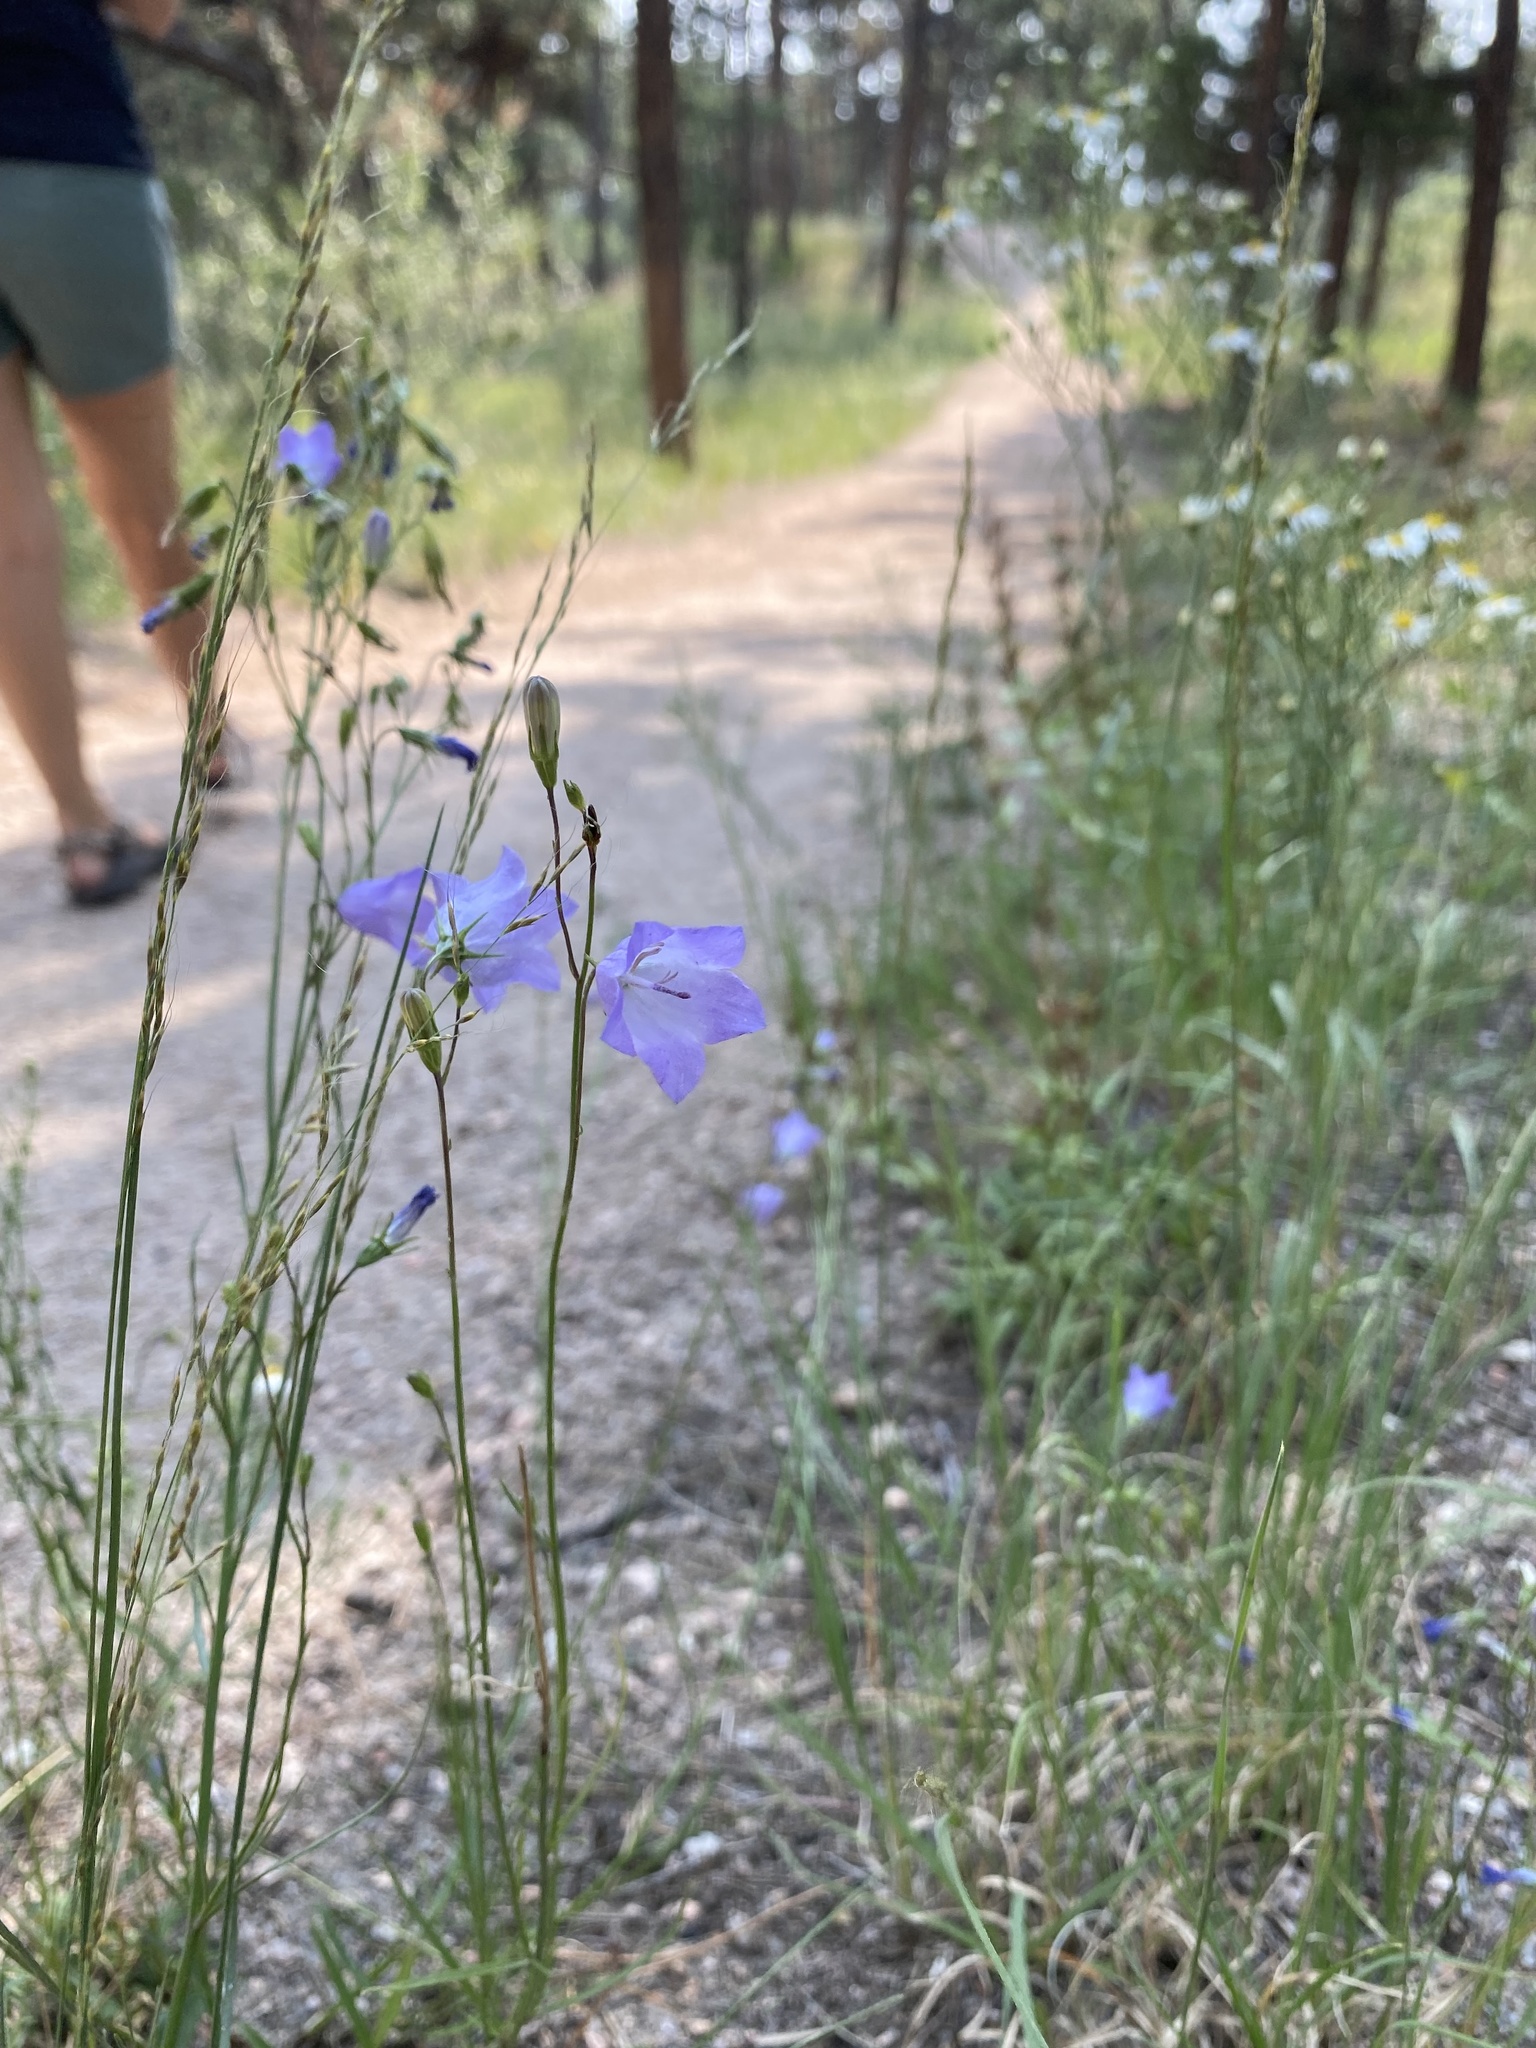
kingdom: Plantae
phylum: Tracheophyta
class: Magnoliopsida
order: Asterales
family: Campanulaceae
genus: Campanula
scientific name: Campanula petiolata
